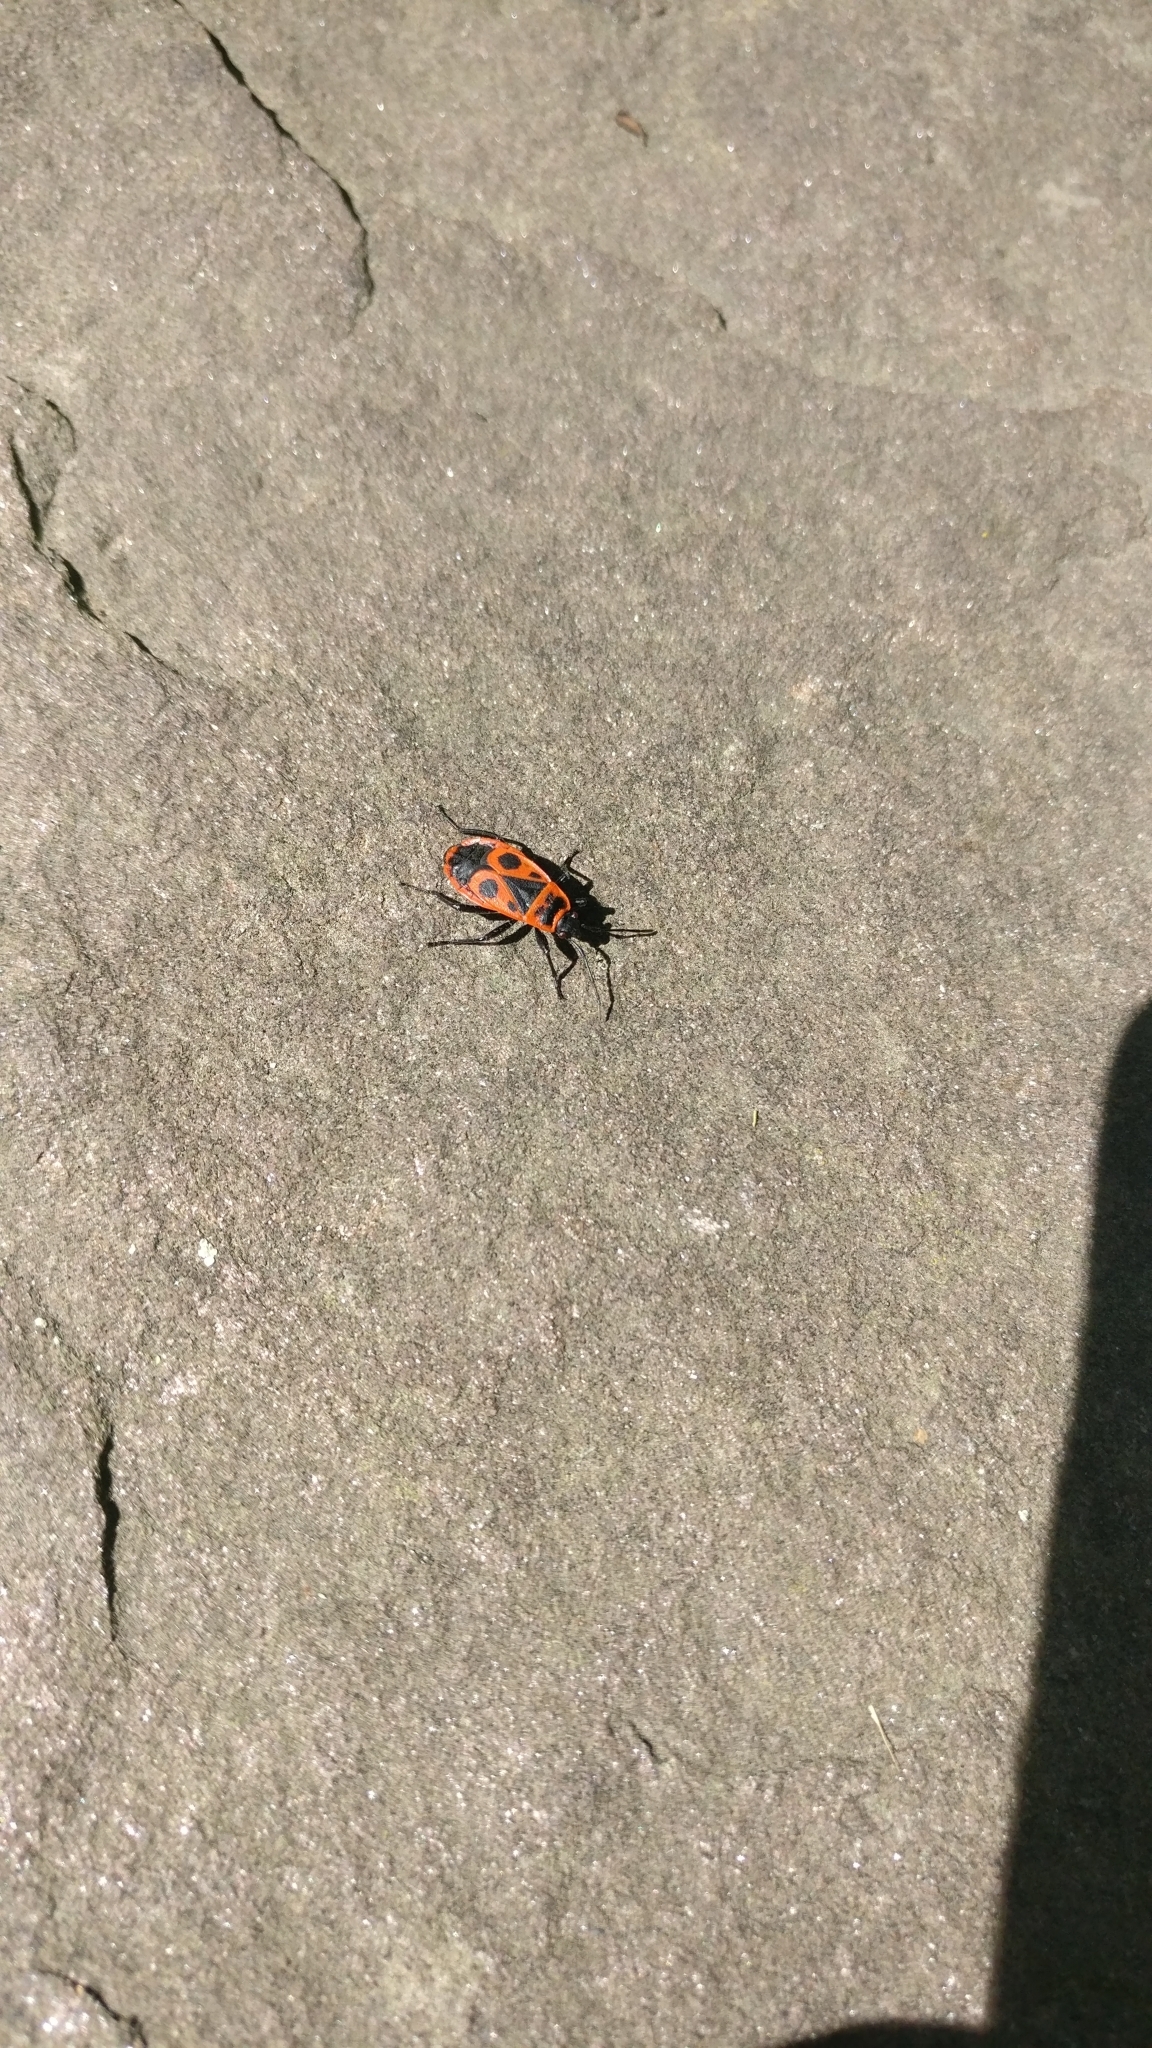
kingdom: Animalia
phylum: Arthropoda
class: Insecta
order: Hemiptera
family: Pyrrhocoridae
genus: Pyrrhocoris
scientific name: Pyrrhocoris apterus
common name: Firebug
